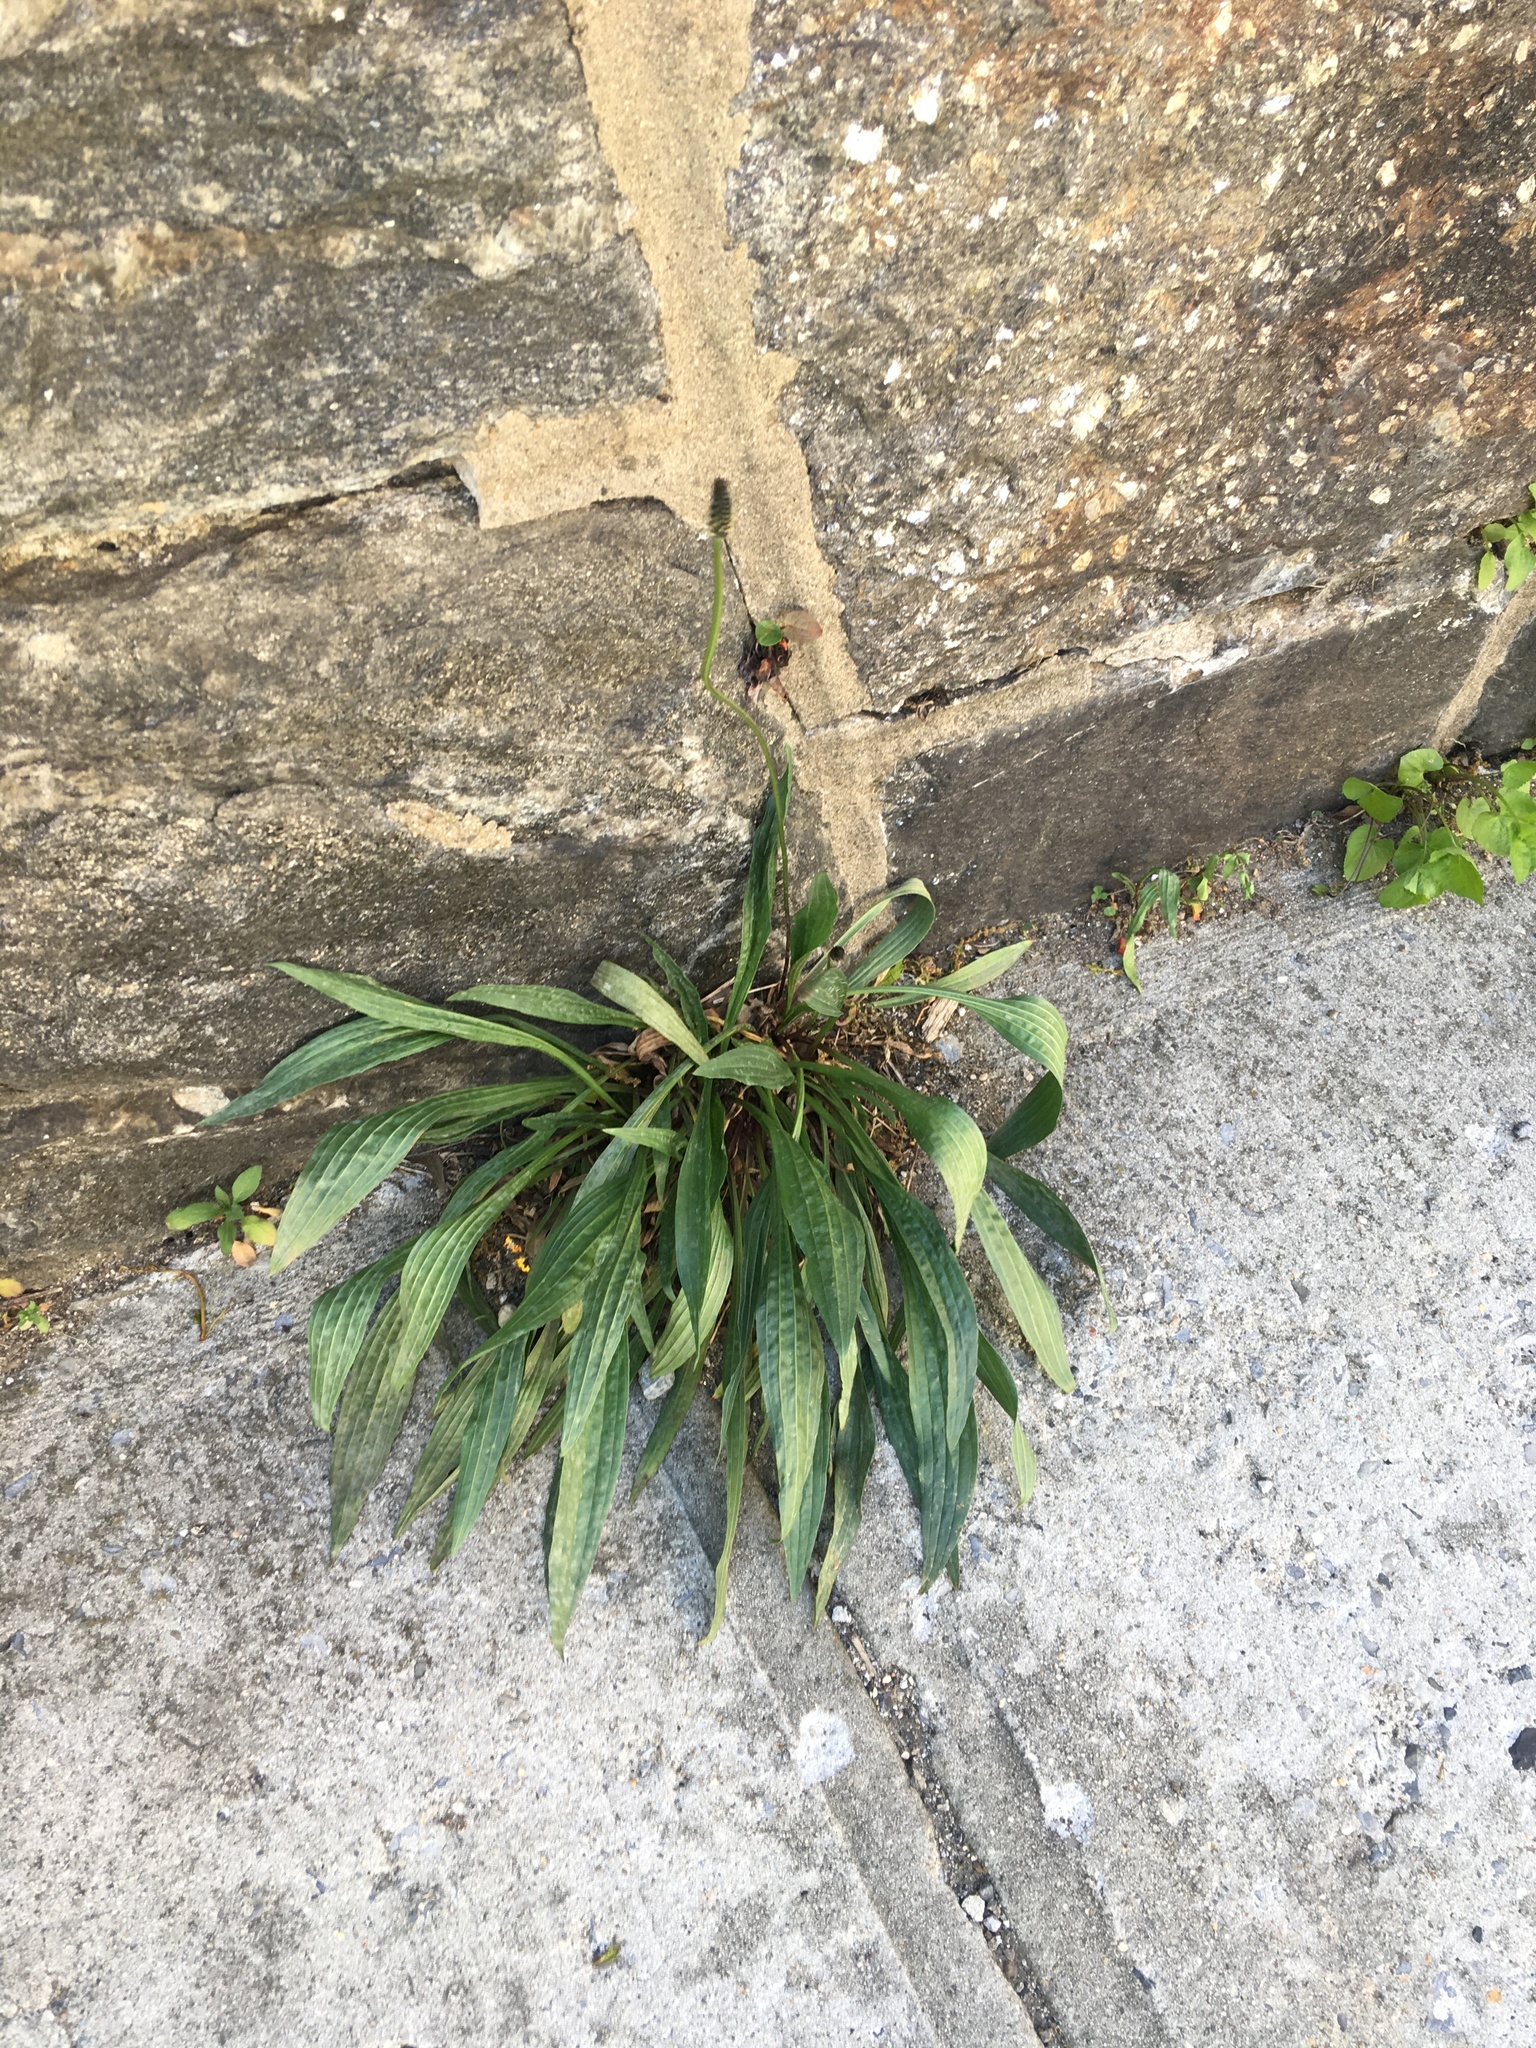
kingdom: Plantae
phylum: Tracheophyta
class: Magnoliopsida
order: Lamiales
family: Plantaginaceae
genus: Plantago
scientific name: Plantago lanceolata
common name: Ribwort plantain
